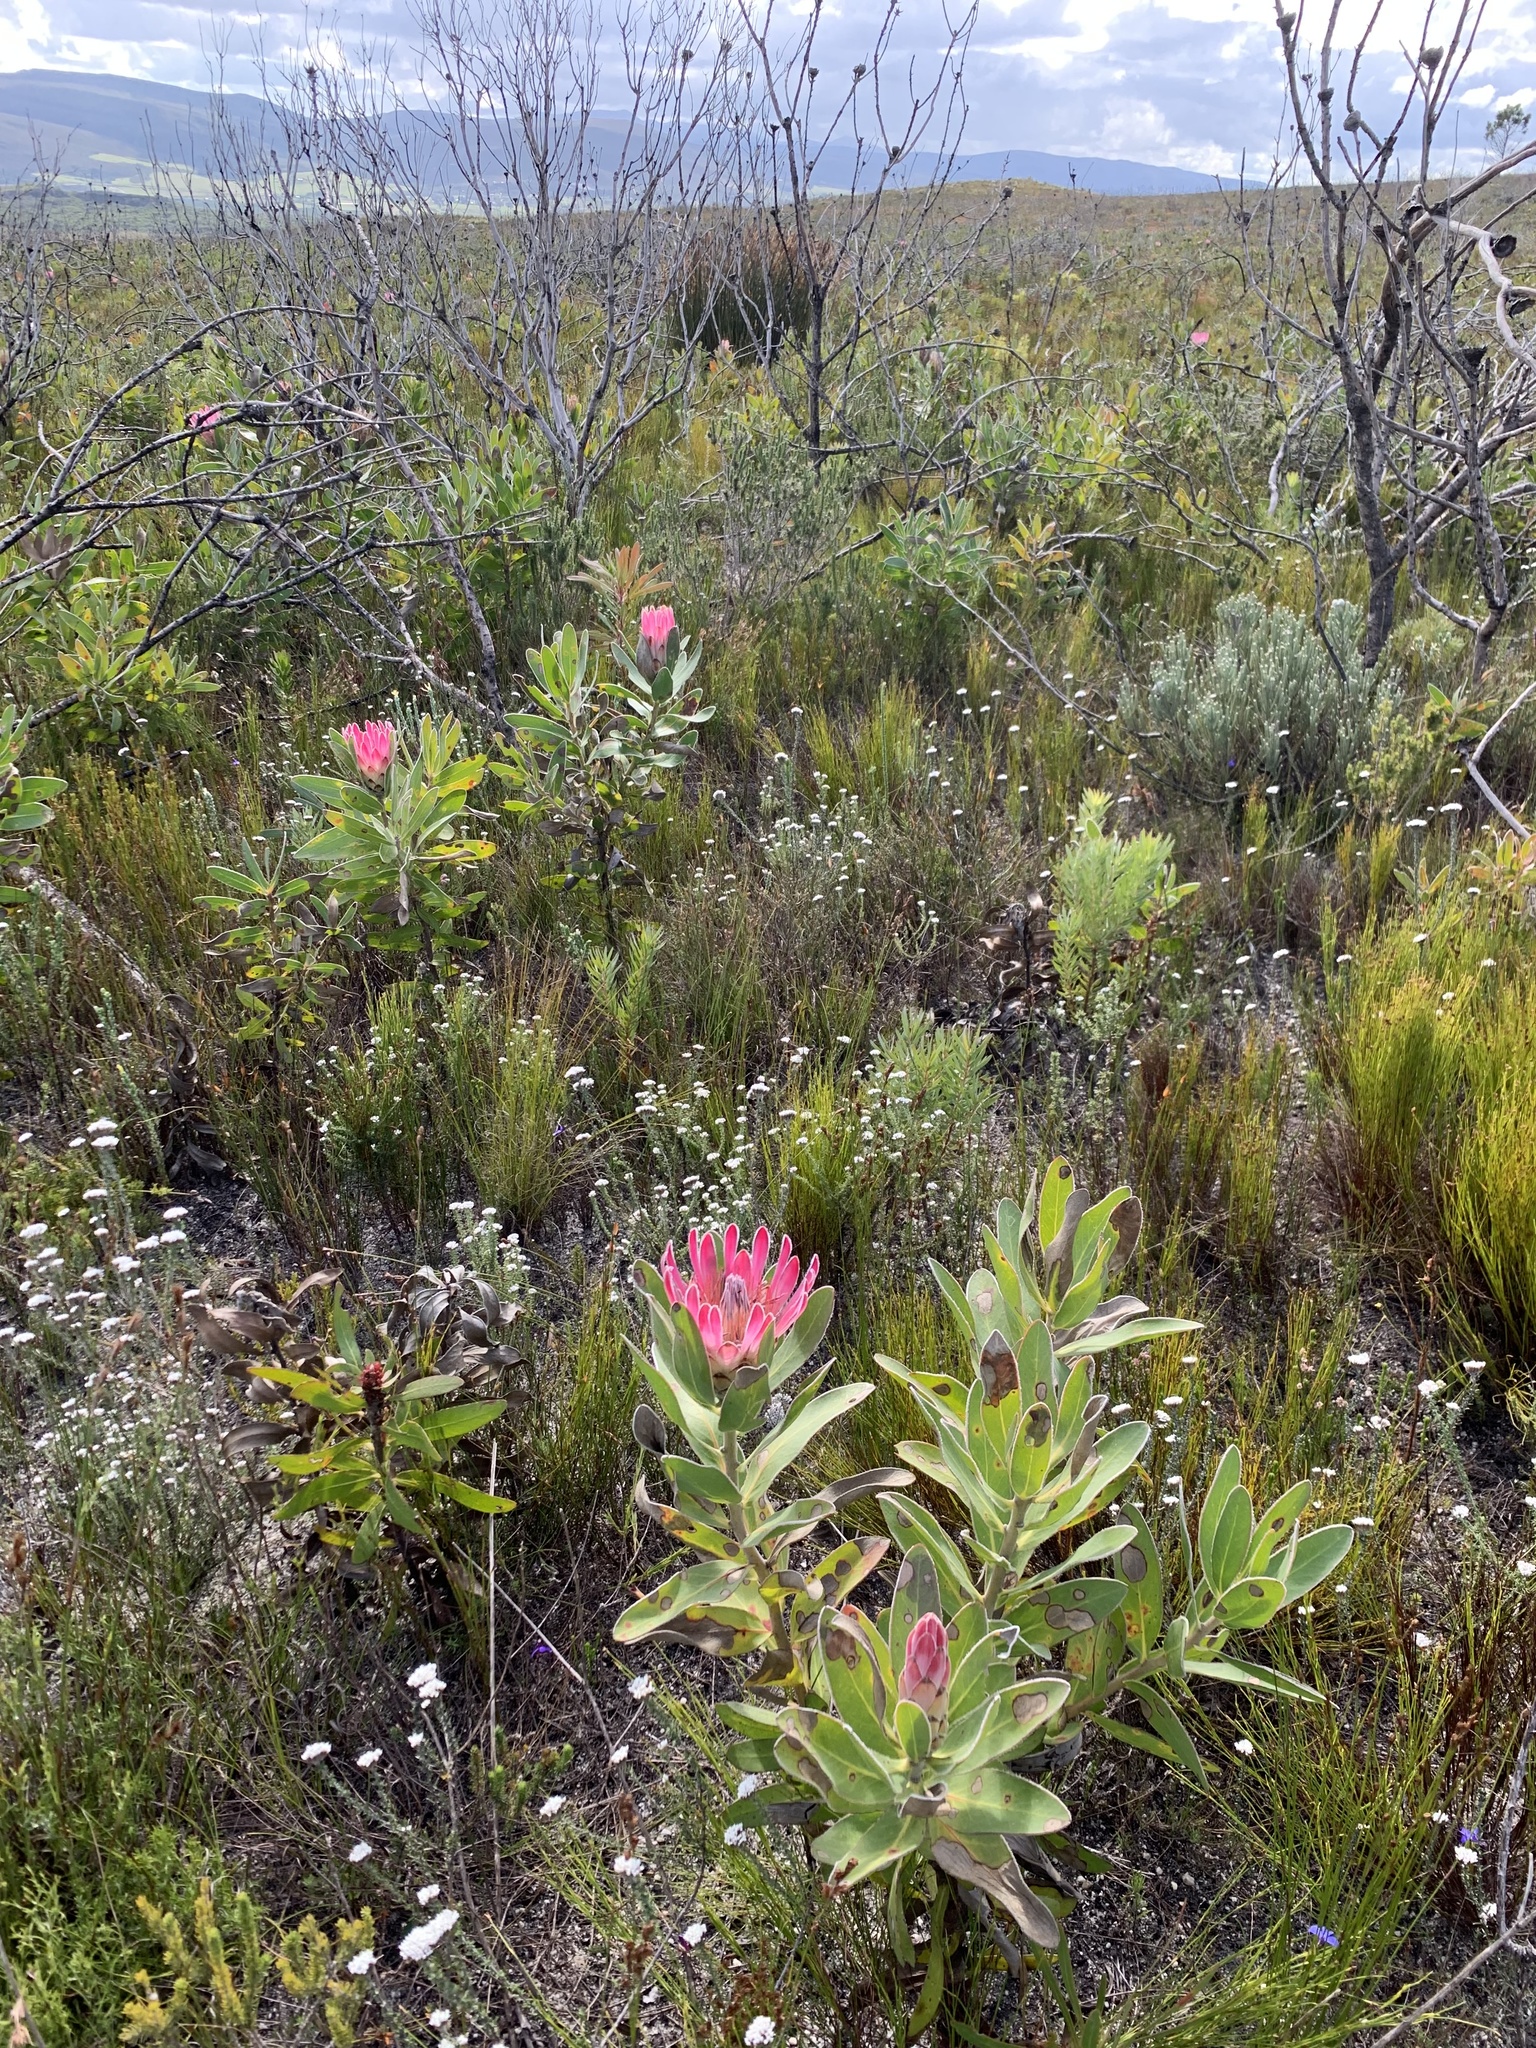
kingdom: Plantae
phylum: Tracheophyta
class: Magnoliopsida
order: Proteales
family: Proteaceae
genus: Protea
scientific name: Protea compacta
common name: Bot river protea
